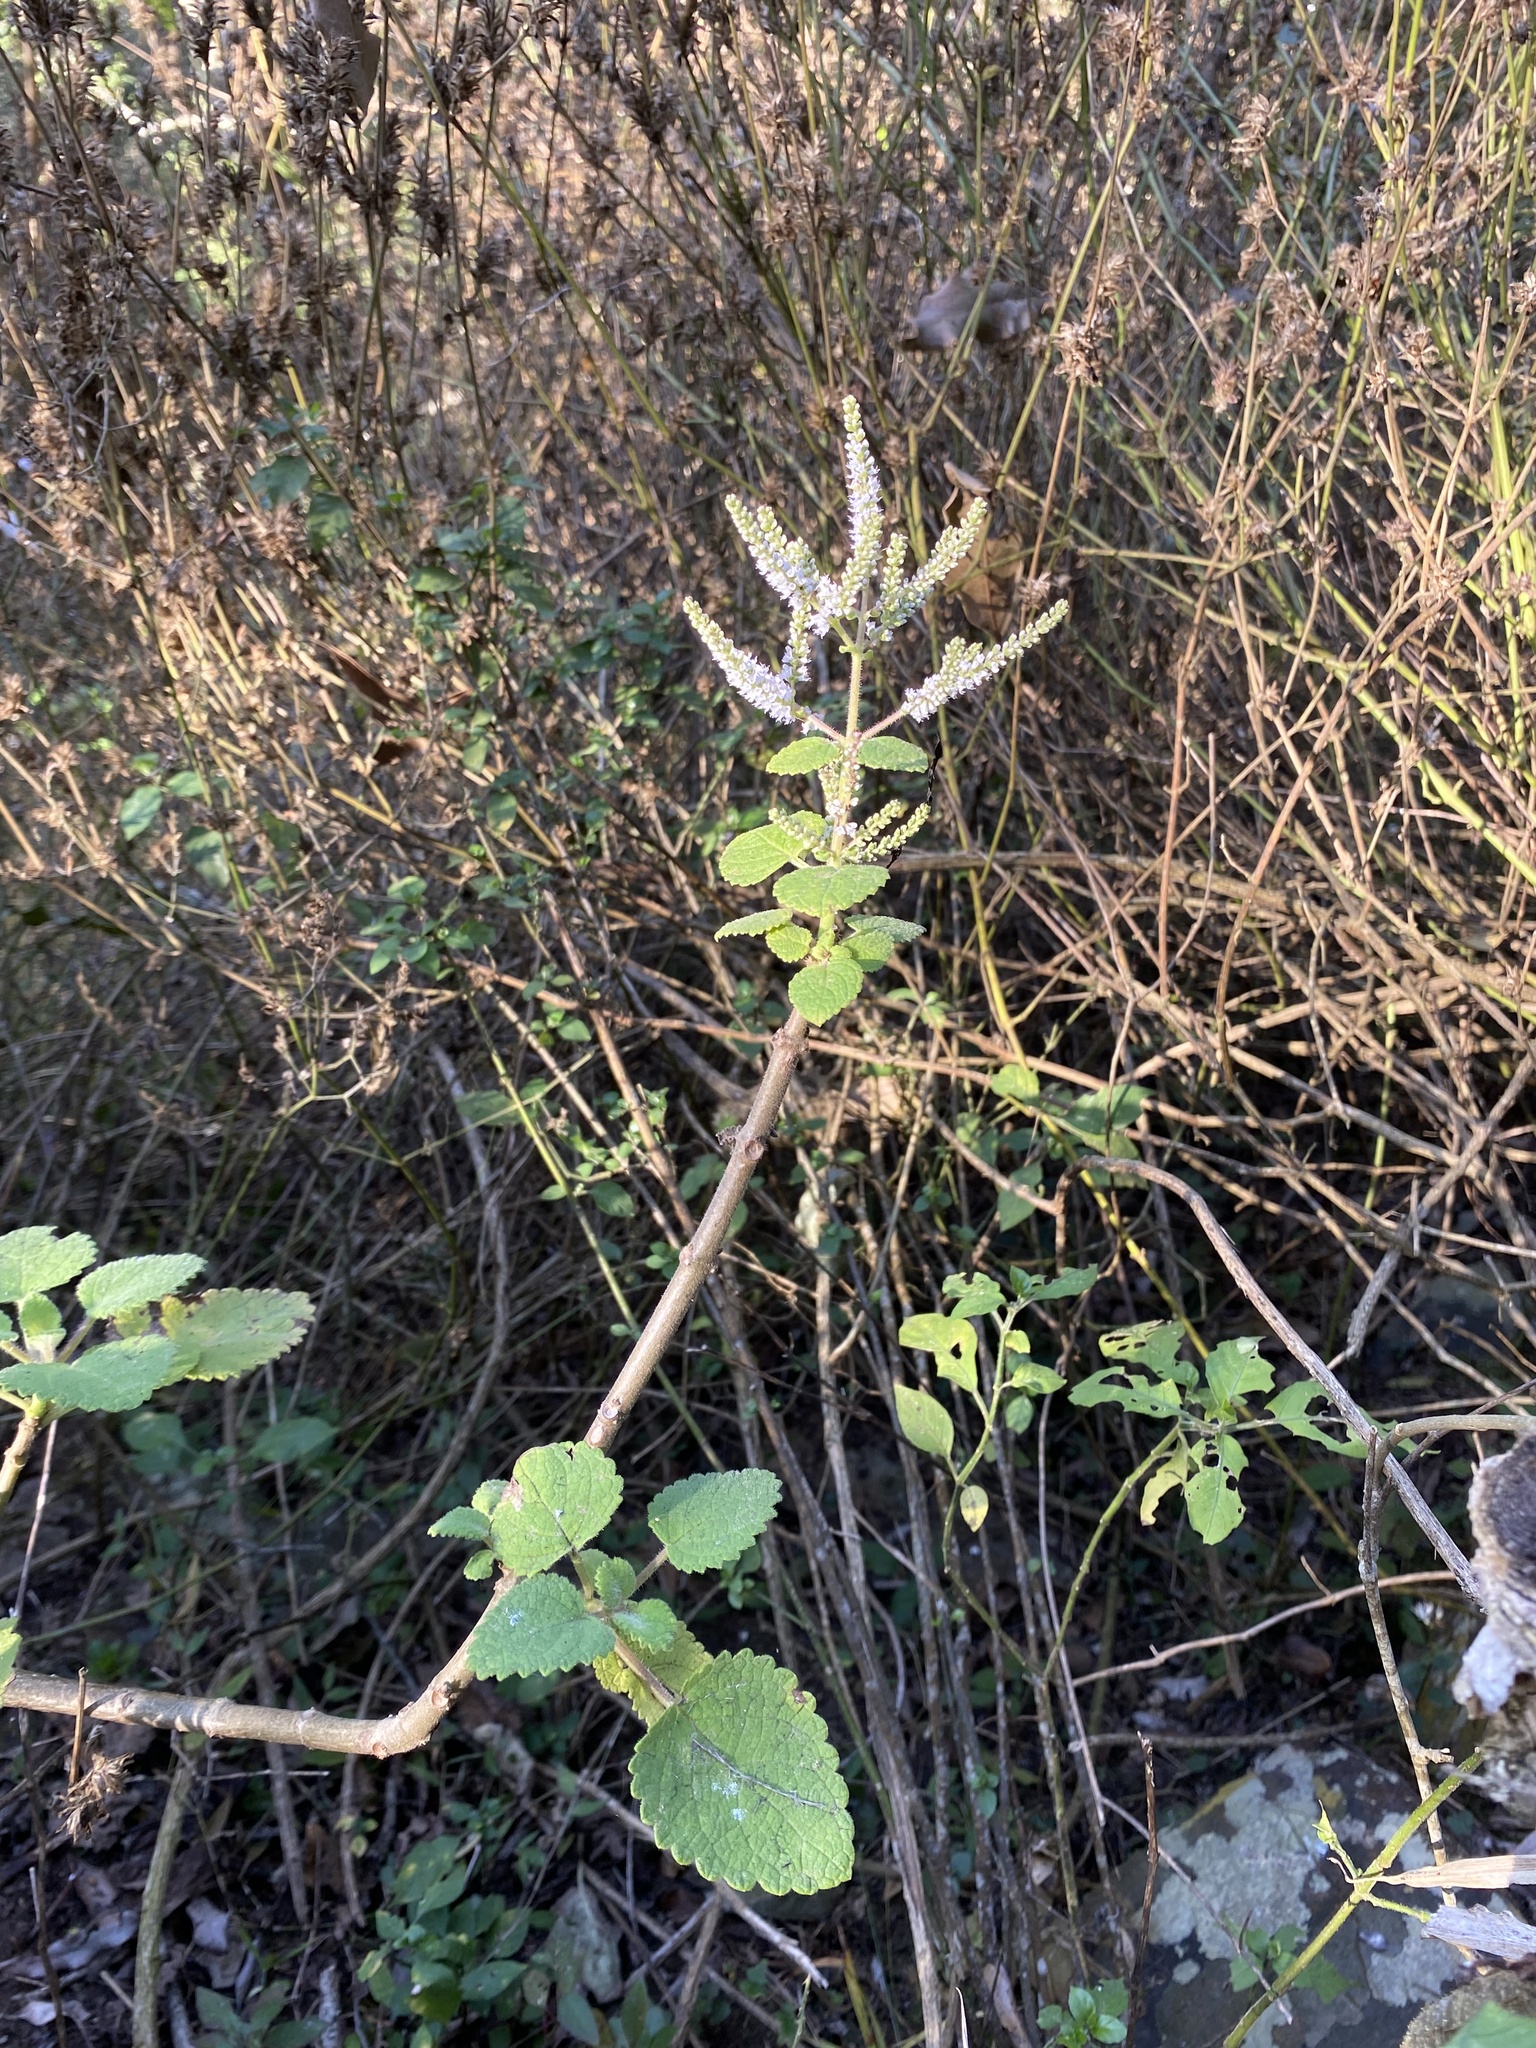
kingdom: Plantae
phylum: Tracheophyta
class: Magnoliopsida
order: Lamiales
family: Lamiaceae
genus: Tetradenia
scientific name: Tetradenia riparia
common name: Gingerbush
